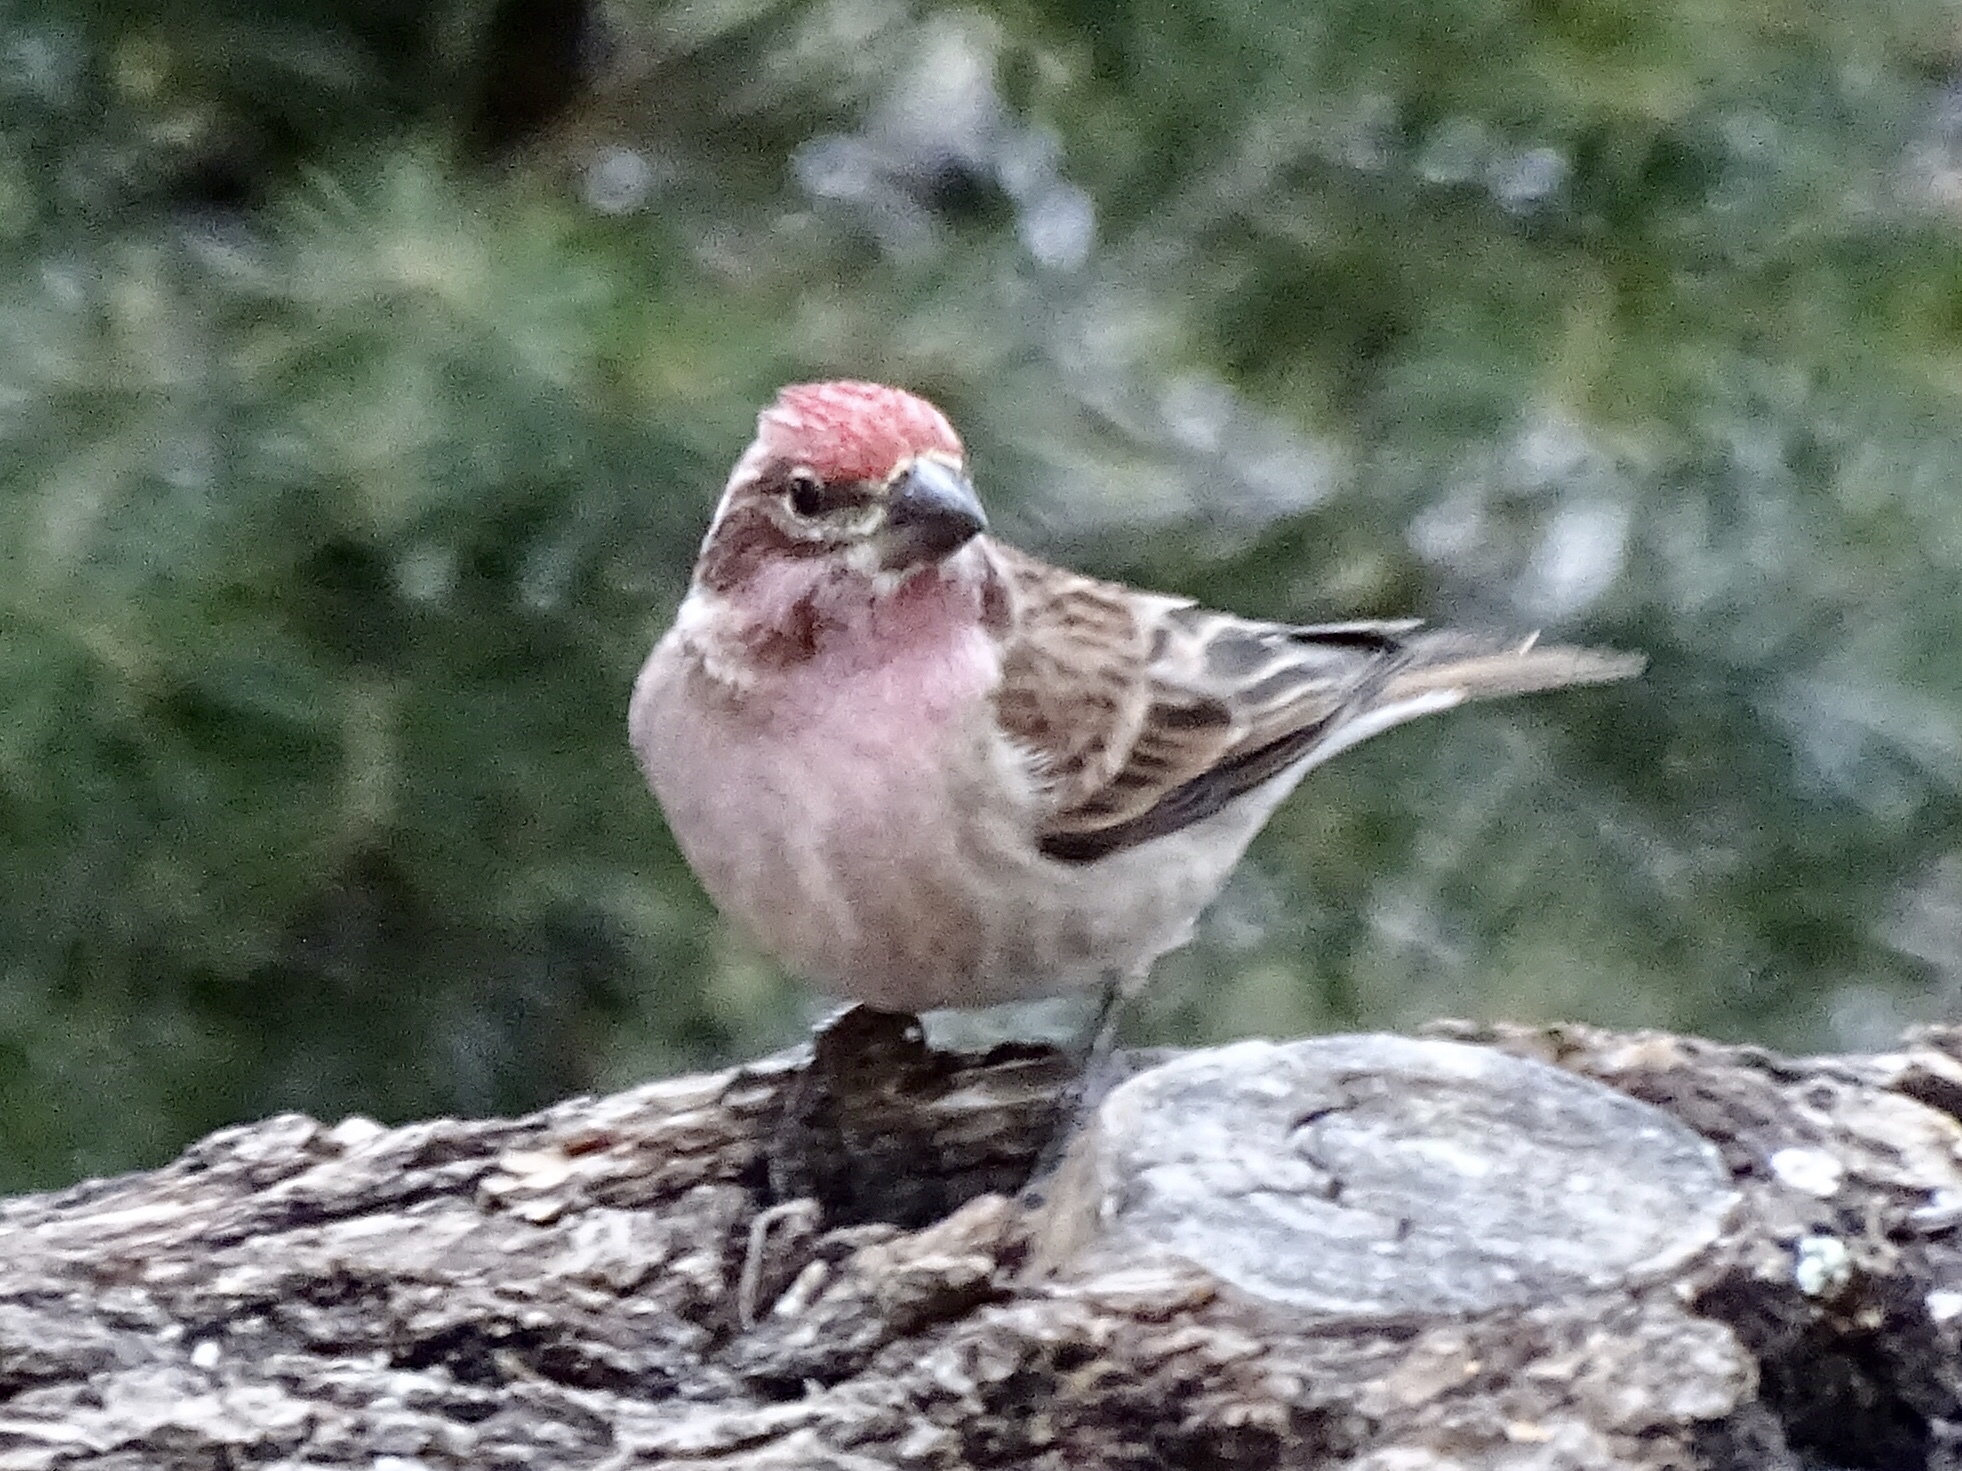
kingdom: Animalia
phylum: Chordata
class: Aves
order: Passeriformes
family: Fringillidae
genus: Haemorhous
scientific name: Haemorhous cassinii
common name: Cassin's finch
